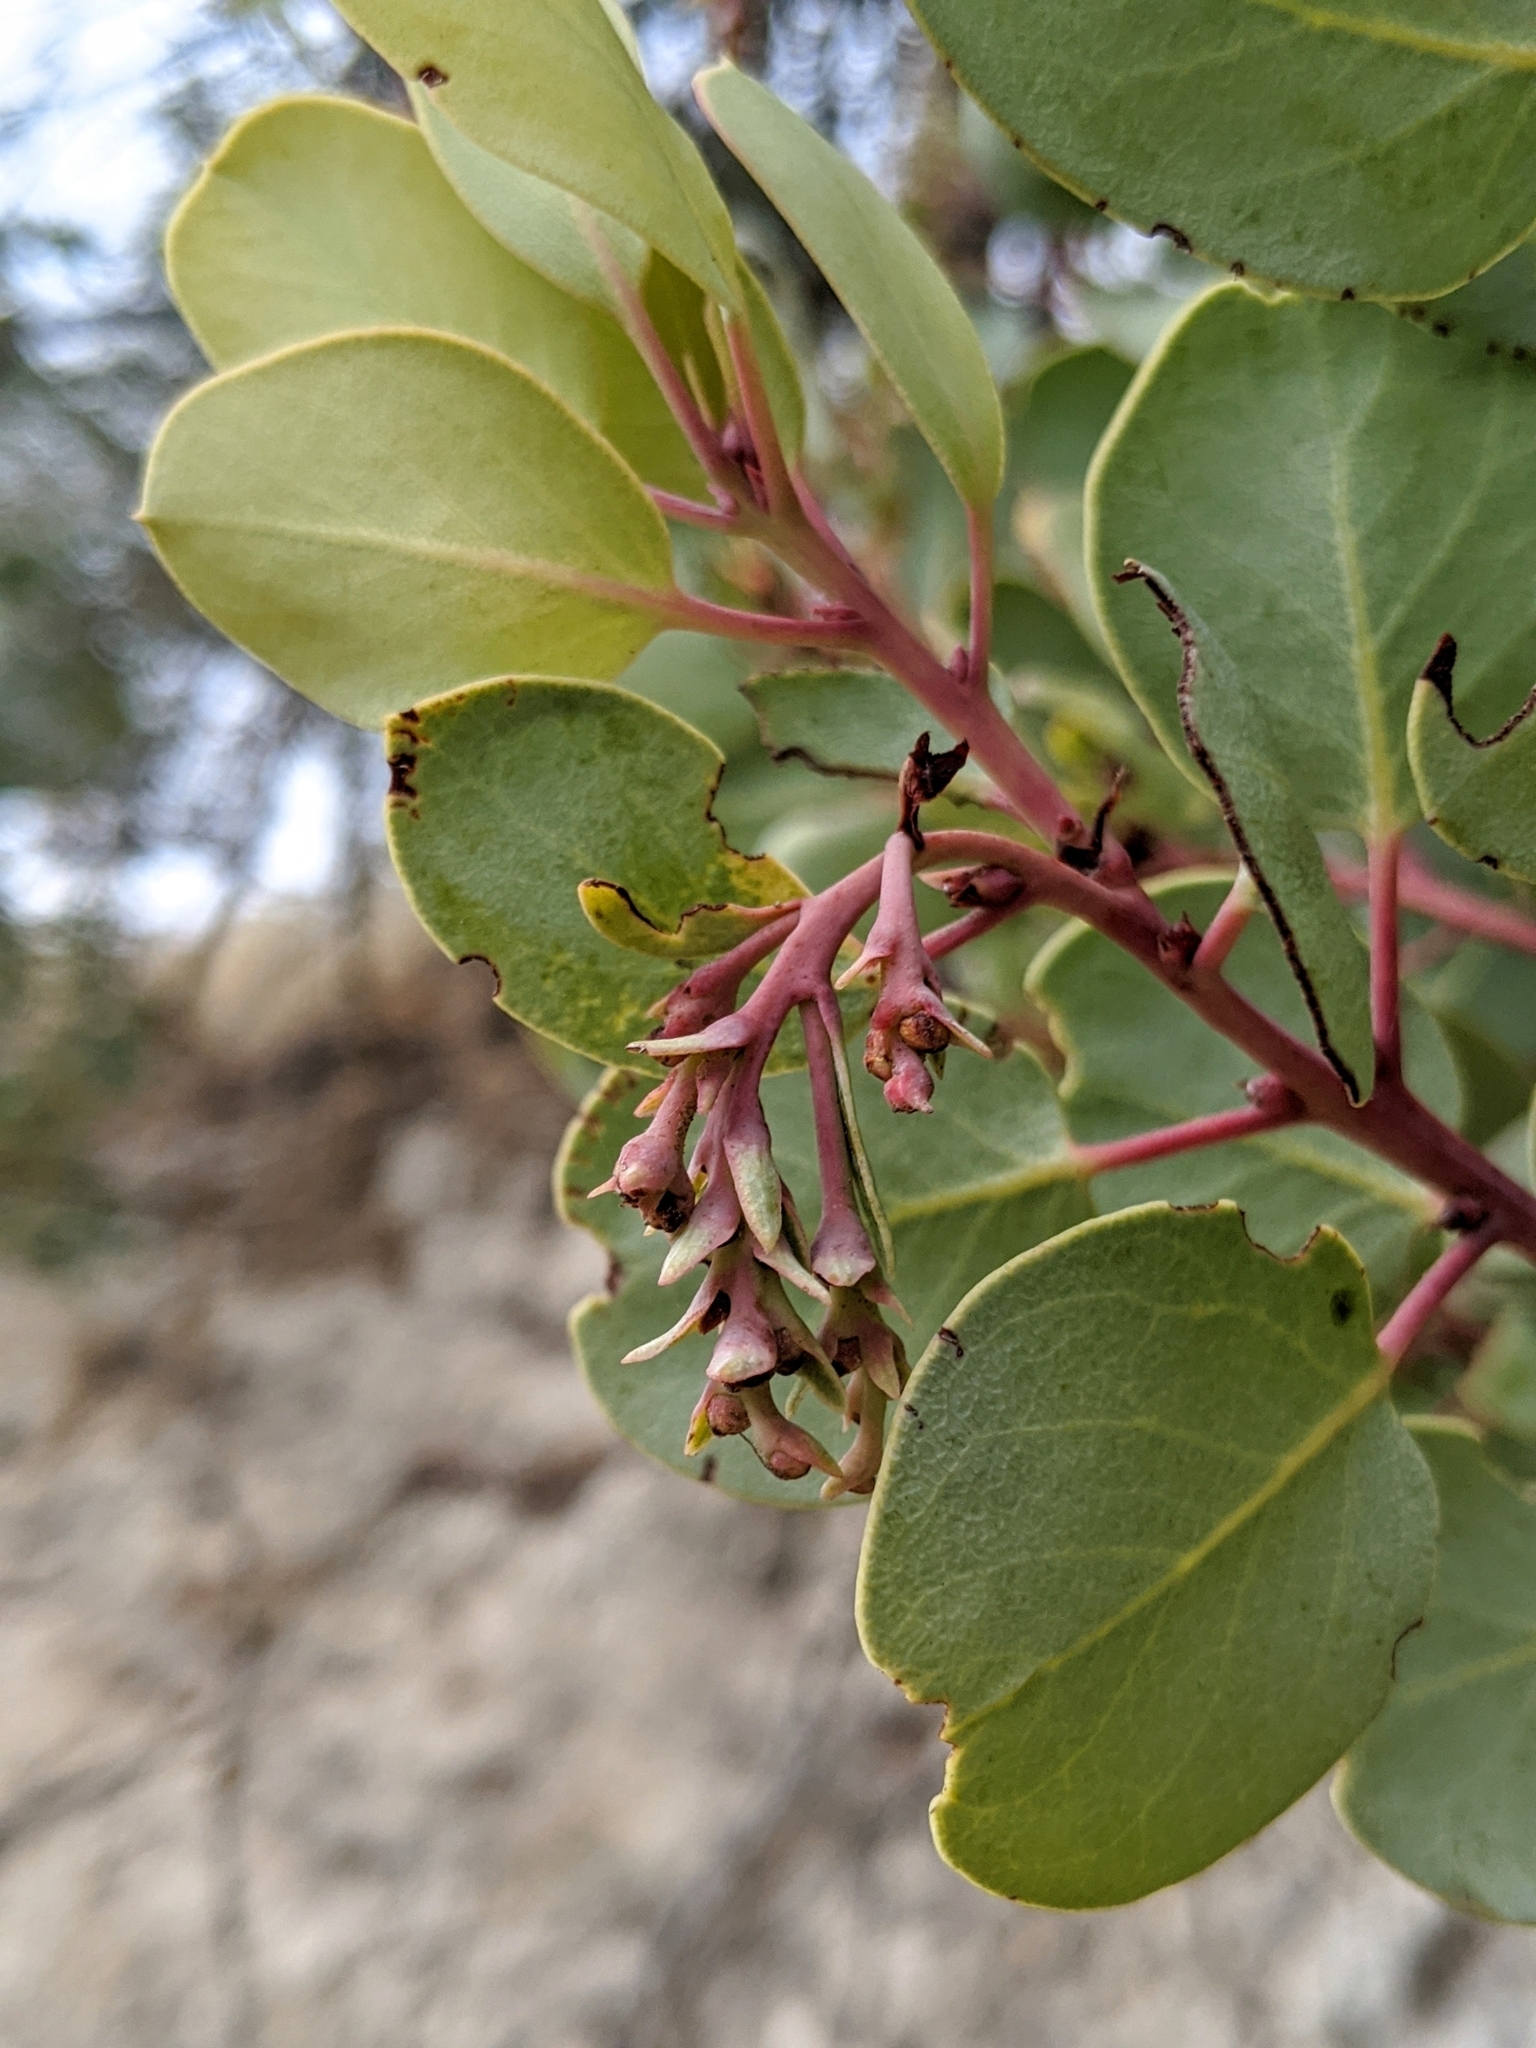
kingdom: Plantae
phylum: Tracheophyta
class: Magnoliopsida
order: Ericales
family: Ericaceae
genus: Arctostaphylos
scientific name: Arctostaphylos glauca
